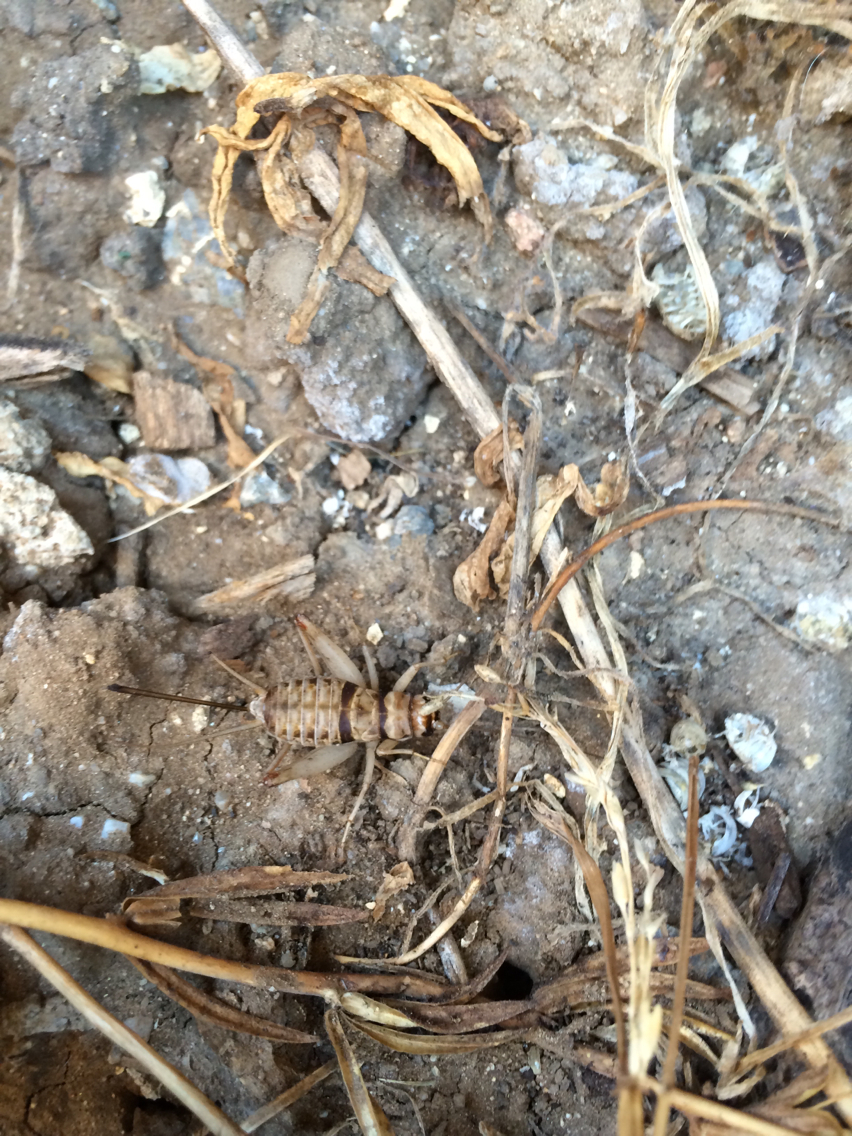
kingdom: Animalia
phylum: Arthropoda
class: Insecta
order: Orthoptera
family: Gryllidae
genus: Gryllodes
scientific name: Gryllodes sigillatus
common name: Tropical house cricket
